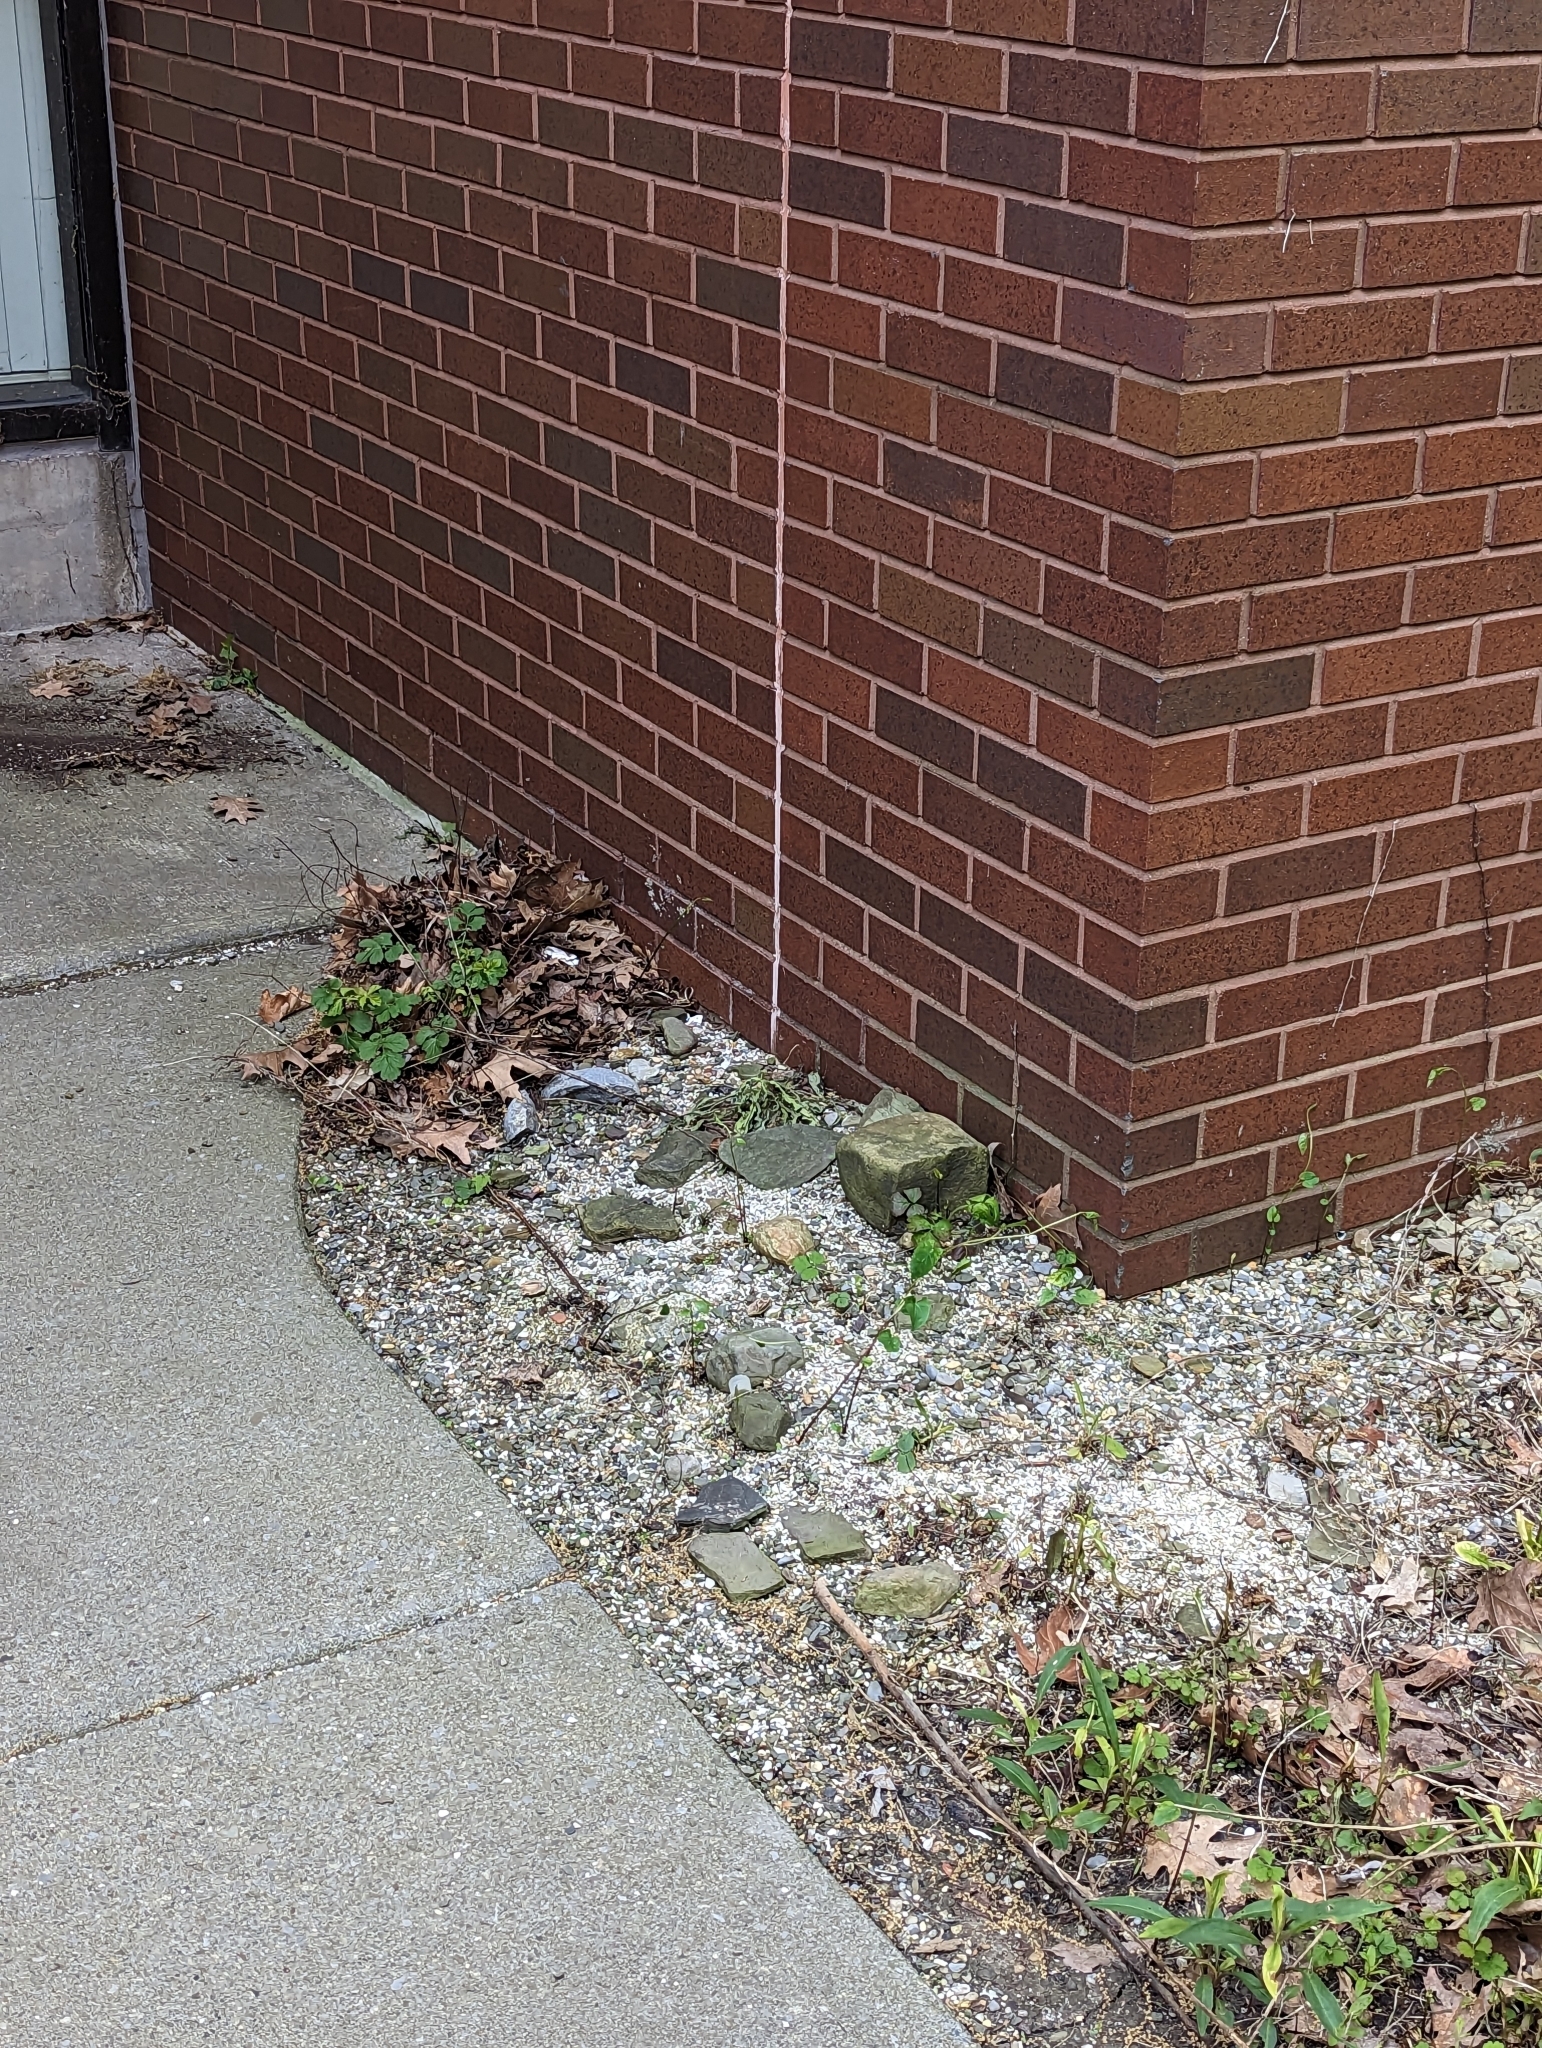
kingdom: Animalia
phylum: Arthropoda
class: Insecta
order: Hymenoptera
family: Formicidae
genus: Paratrechina
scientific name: Paratrechina flavipes
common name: Eastern asian formicine ant
